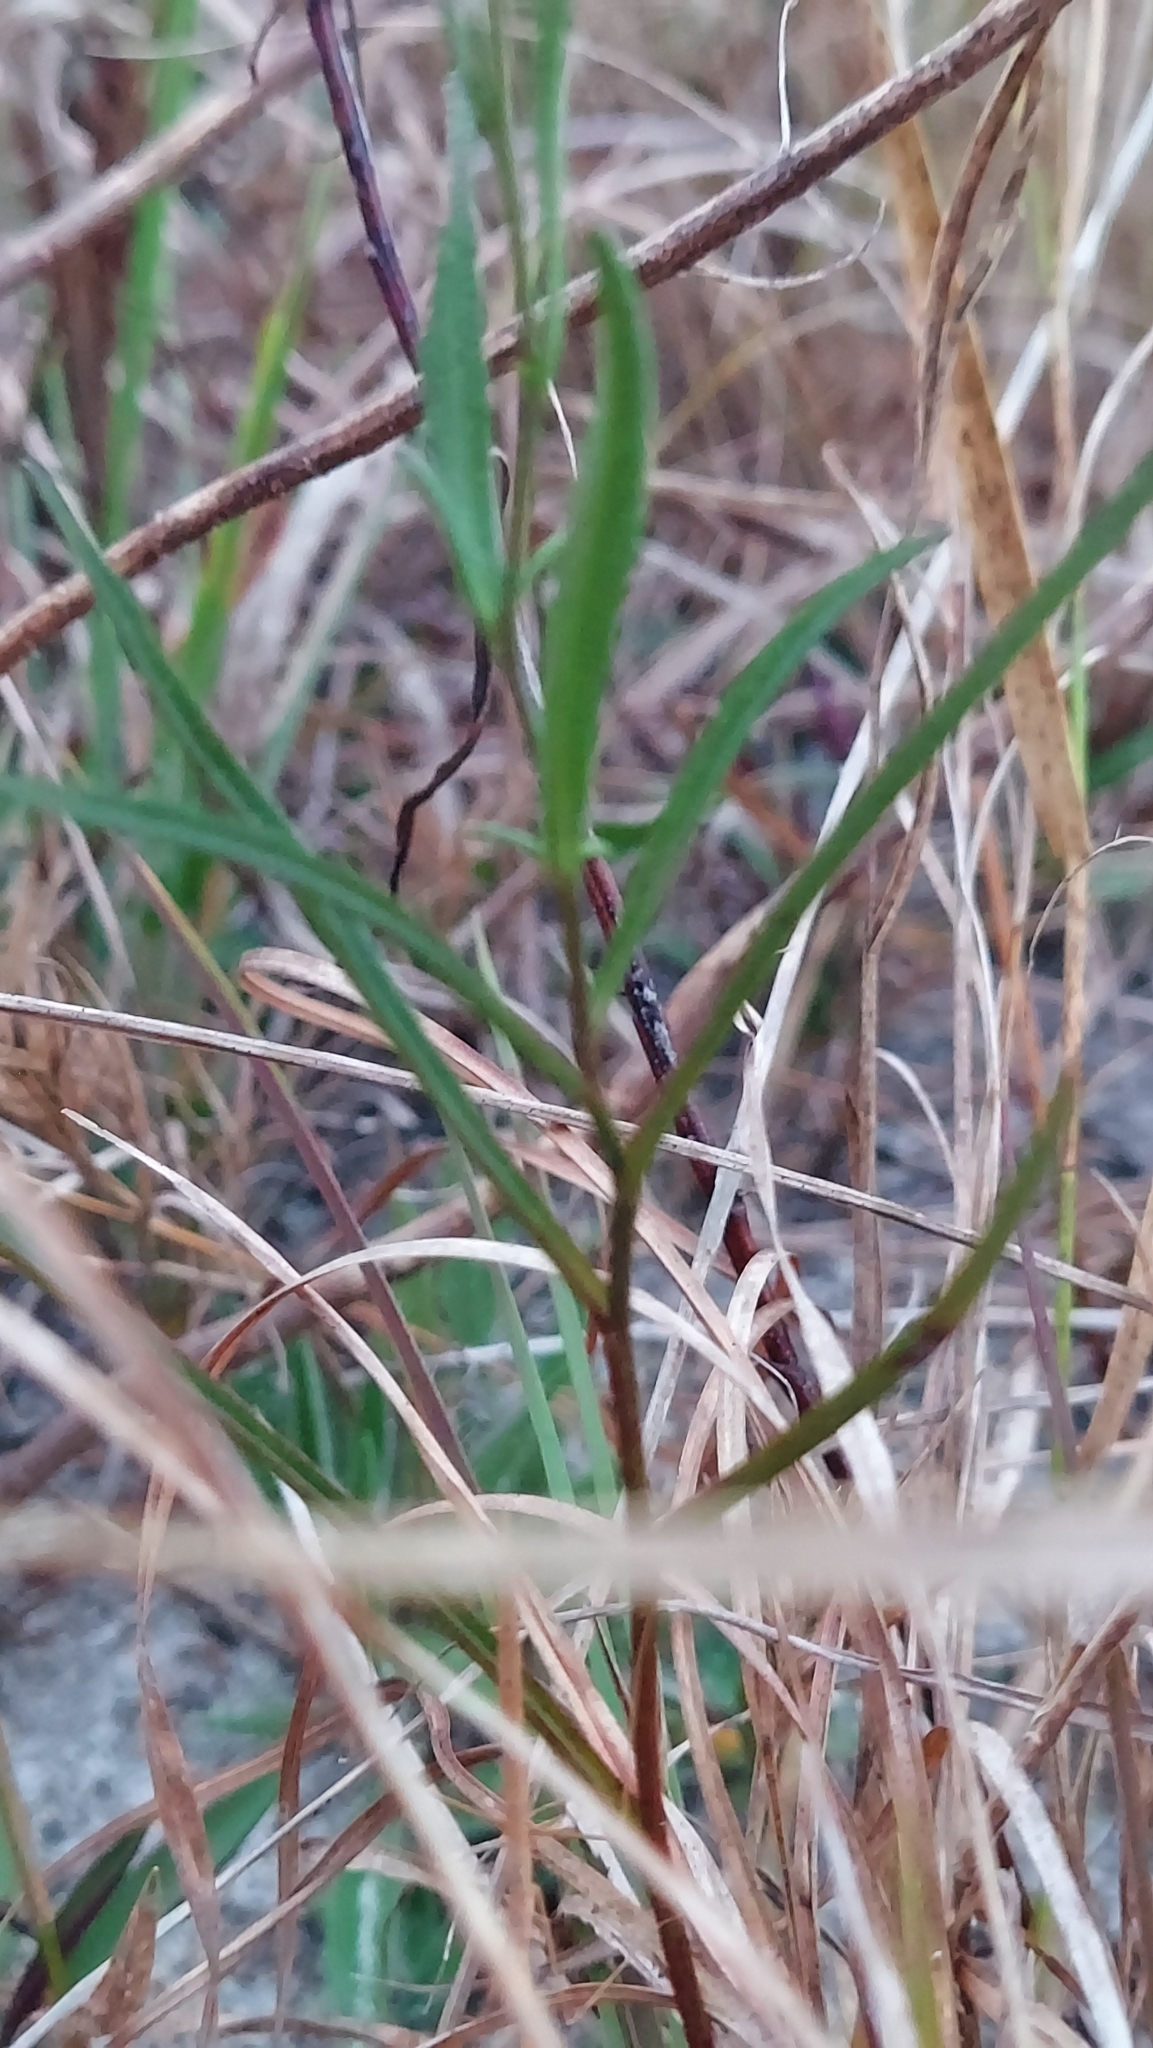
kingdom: Plantae
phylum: Tracheophyta
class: Magnoliopsida
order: Asterales
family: Asteraceae
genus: Symphyotrichum
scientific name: Symphyotrichum simmondsii
